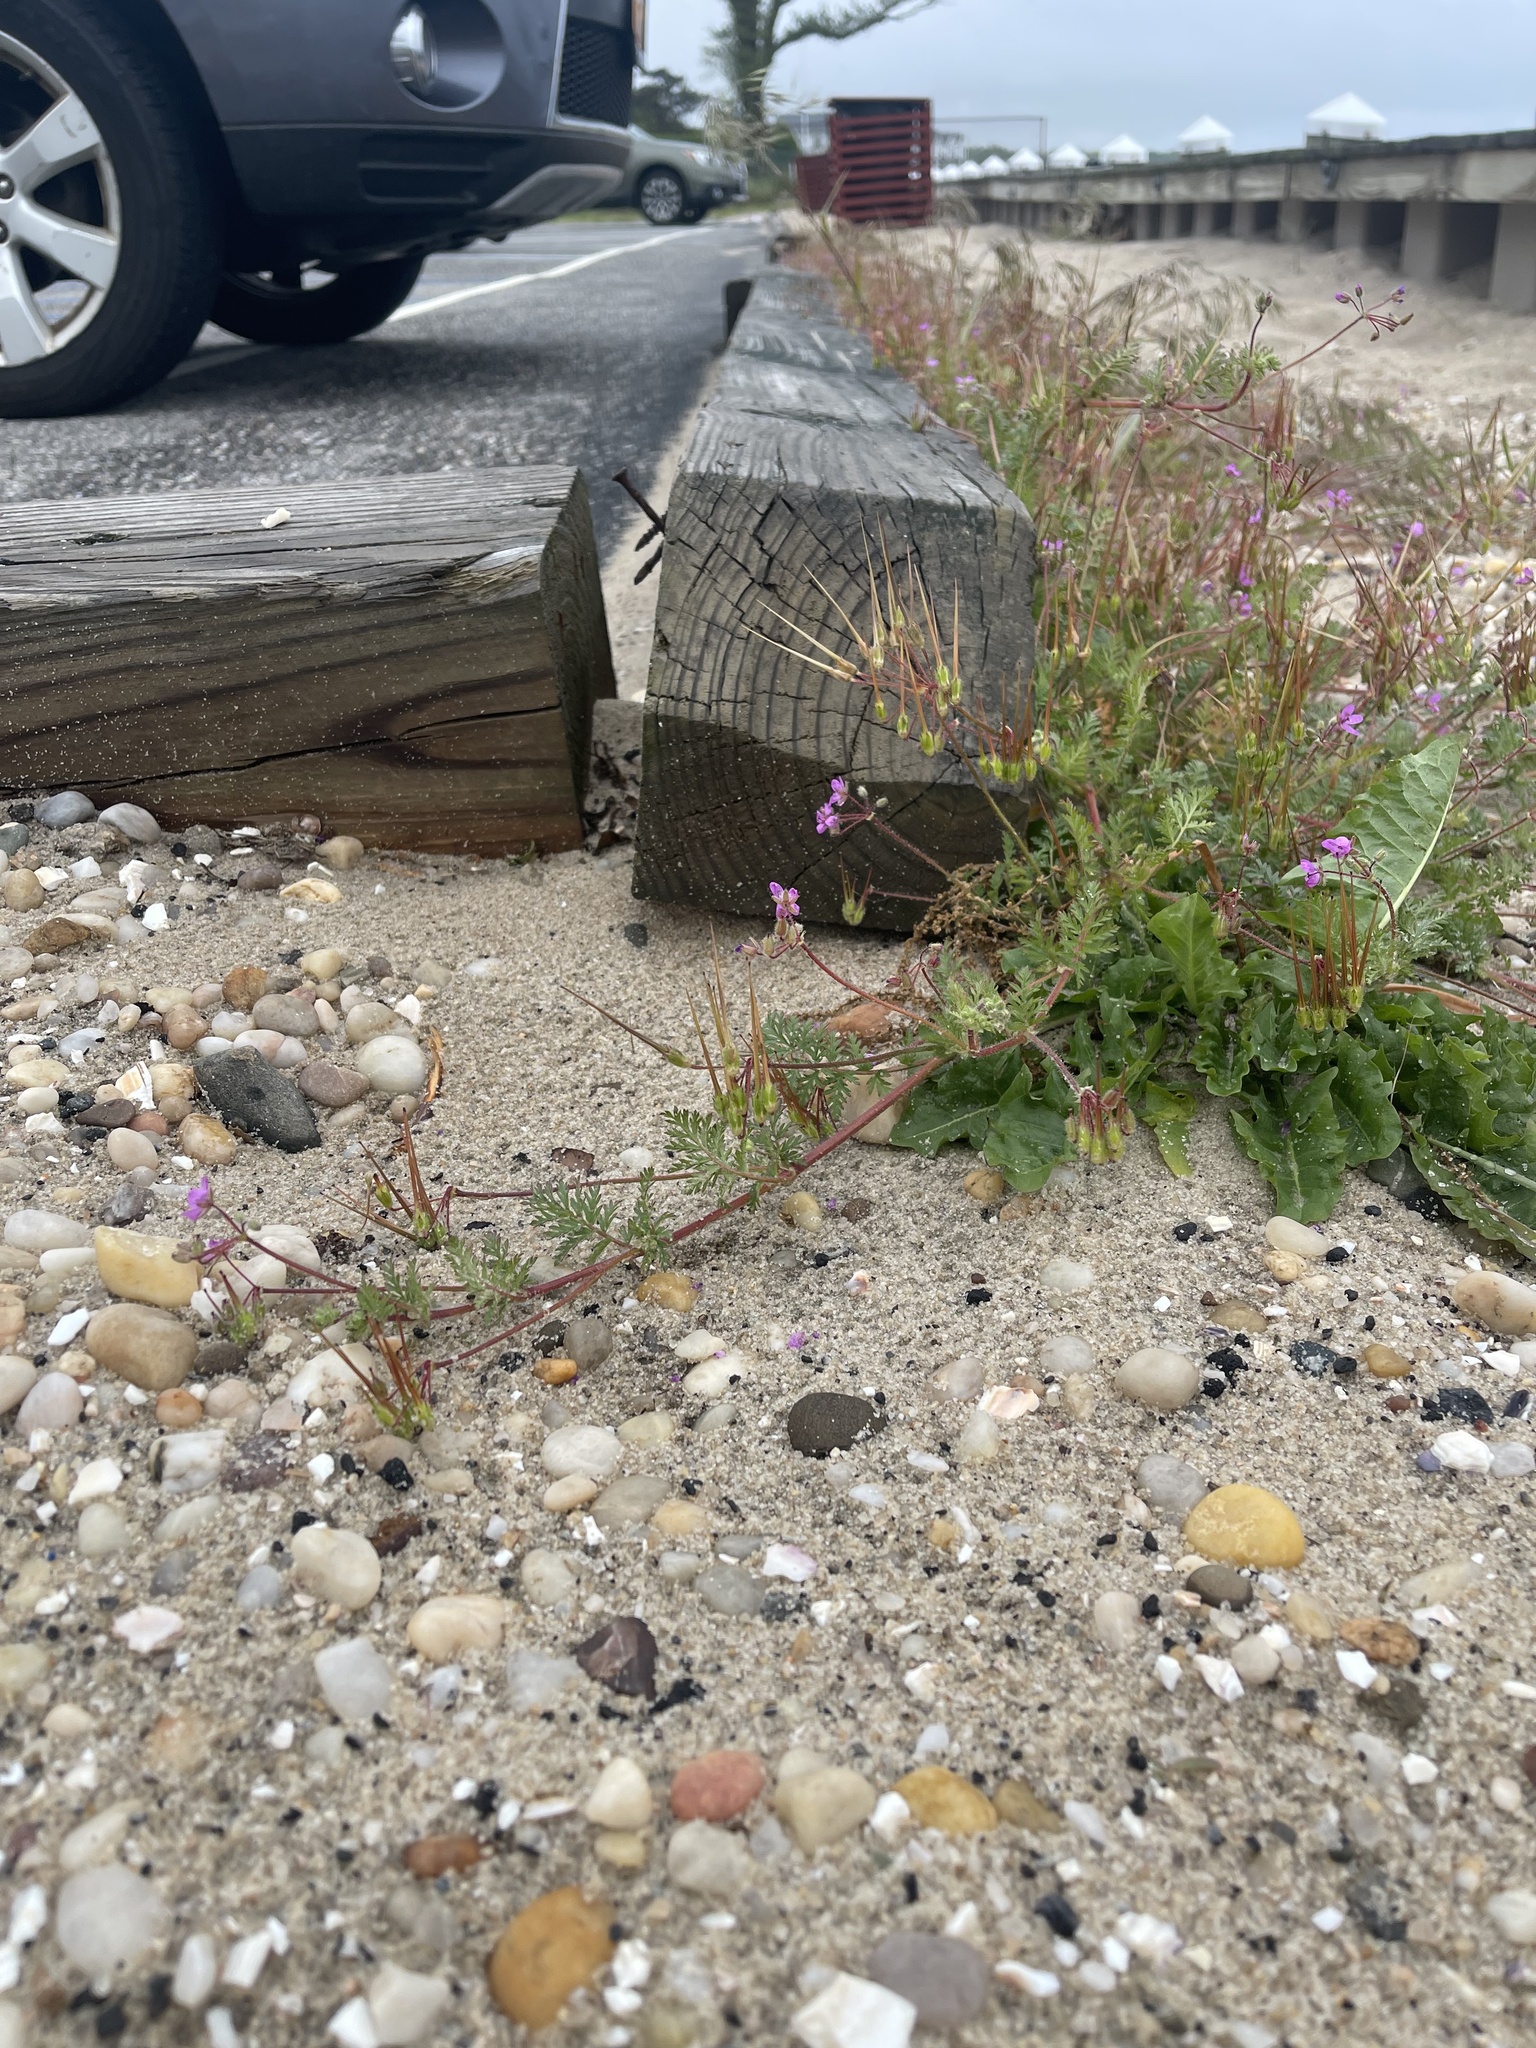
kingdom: Plantae
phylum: Tracheophyta
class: Magnoliopsida
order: Geraniales
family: Geraniaceae
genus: Erodium
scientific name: Erodium cicutarium
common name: Common stork's-bill
